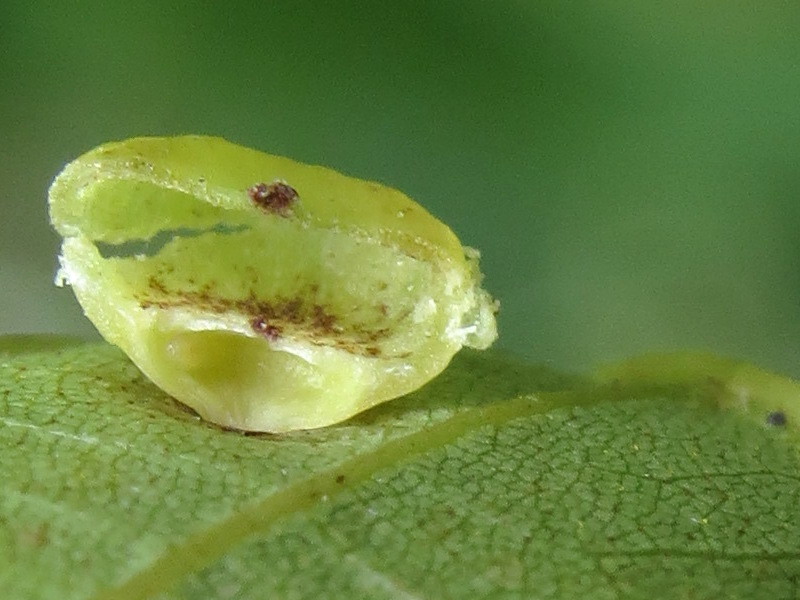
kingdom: Animalia
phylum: Arthropoda
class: Insecta
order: Diptera
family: Cecidomyiidae
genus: Caryomyia
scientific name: Caryomyia inflata
